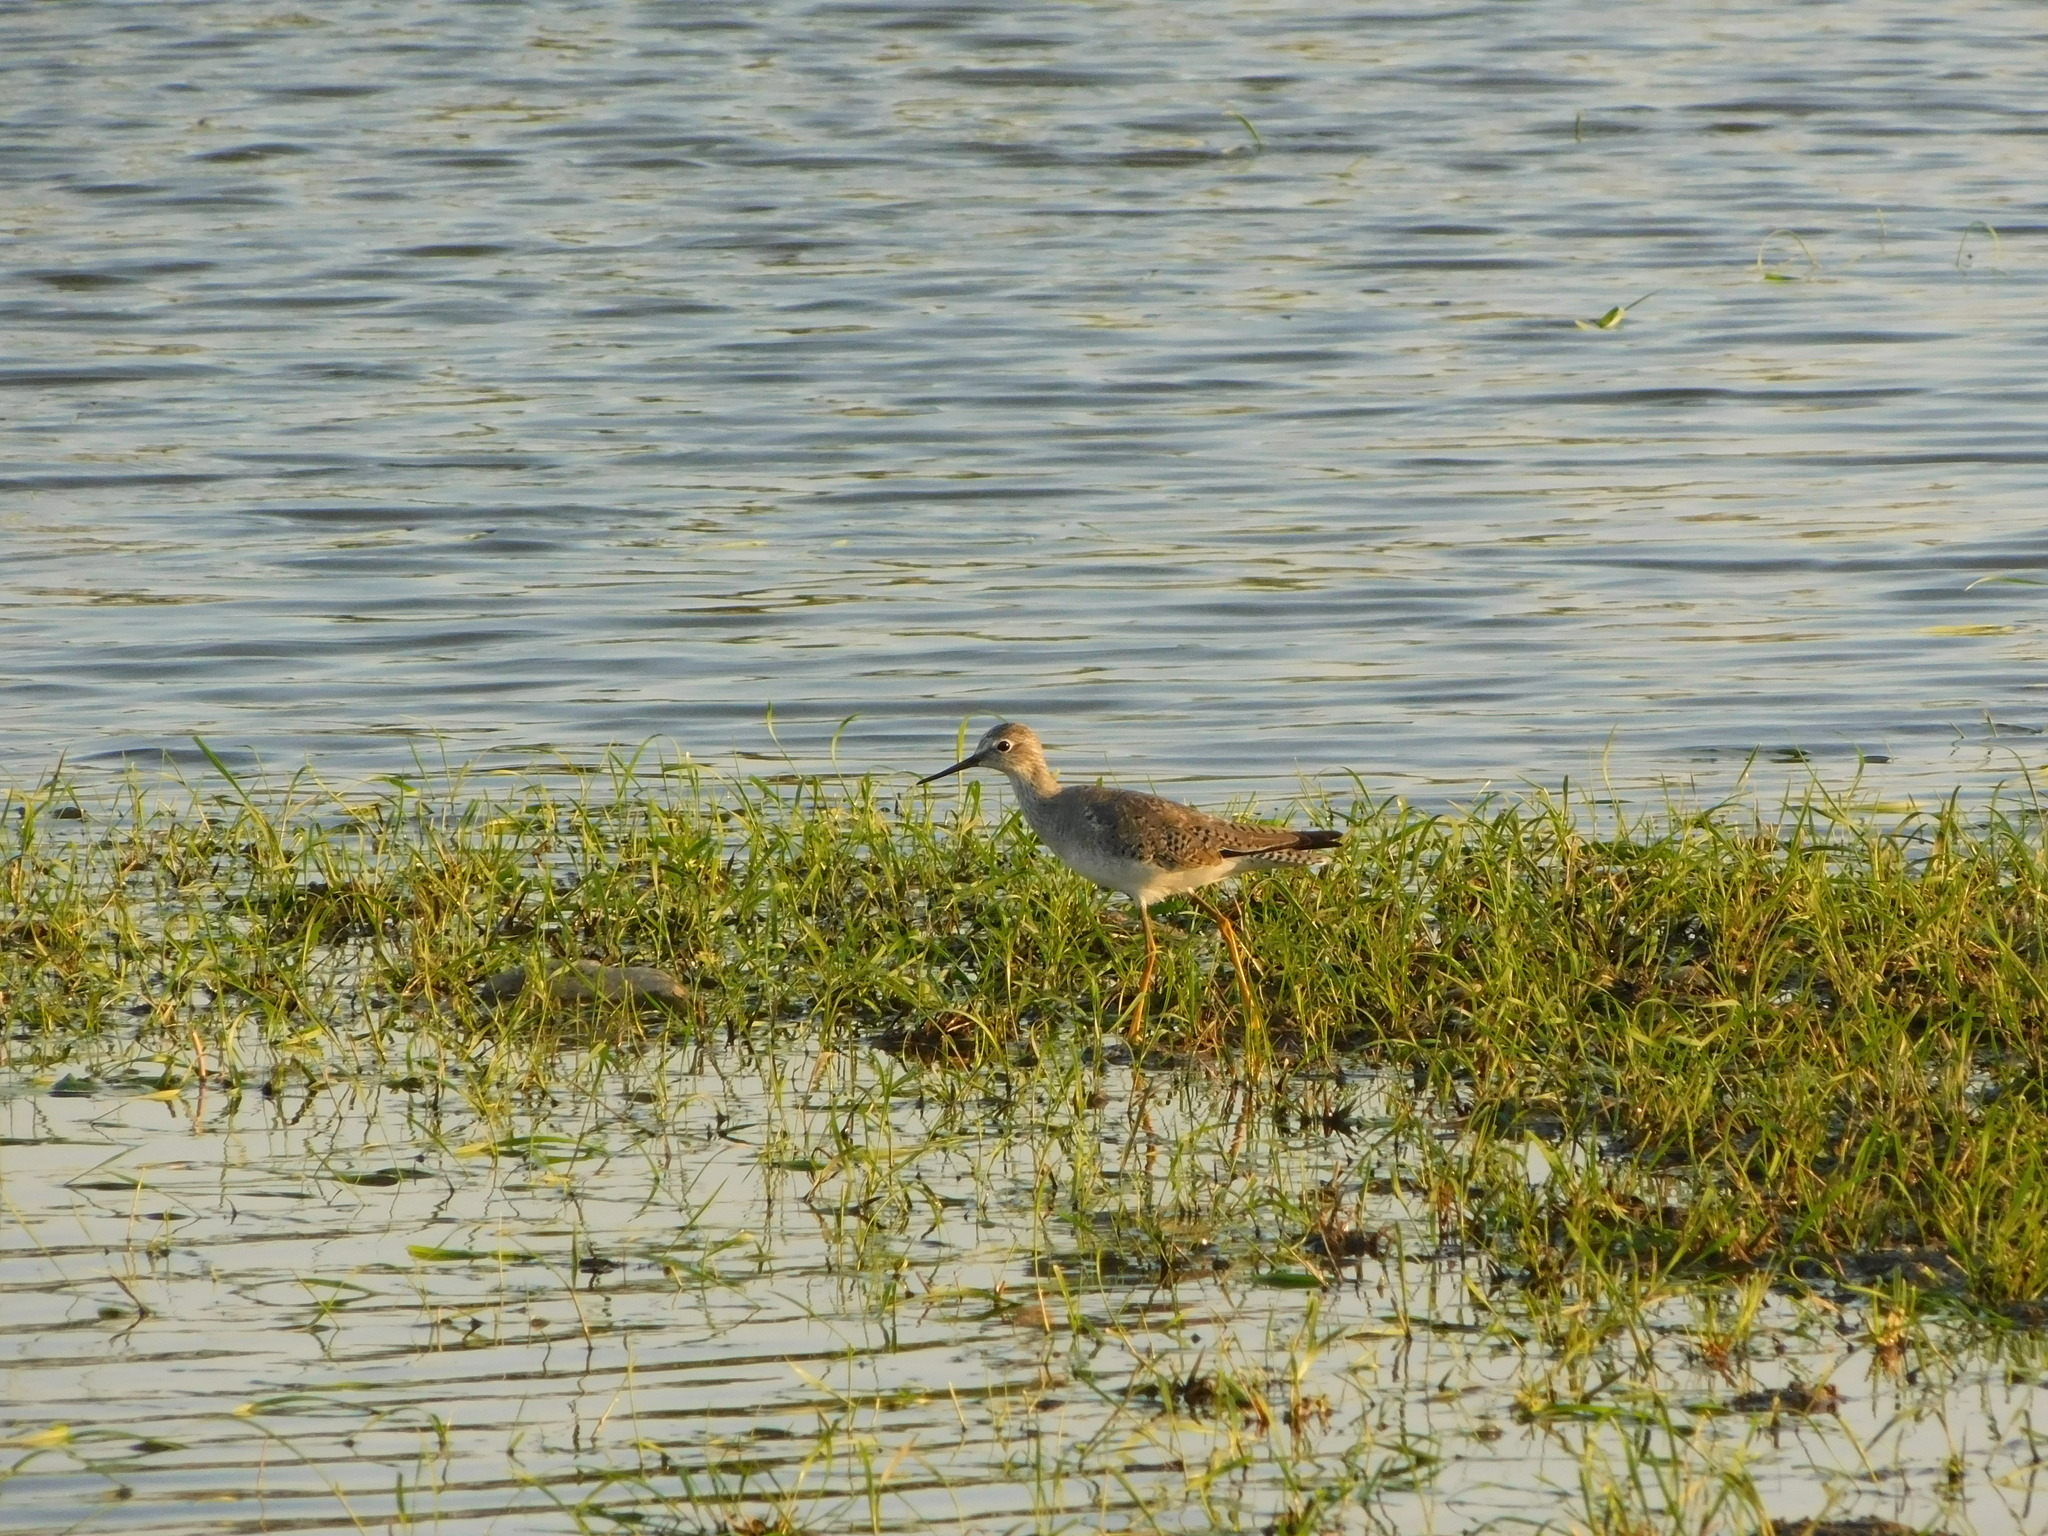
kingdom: Animalia
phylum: Chordata
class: Aves
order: Charadriiformes
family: Scolopacidae
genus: Tringa
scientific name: Tringa flavipes
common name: Lesser yellowlegs
